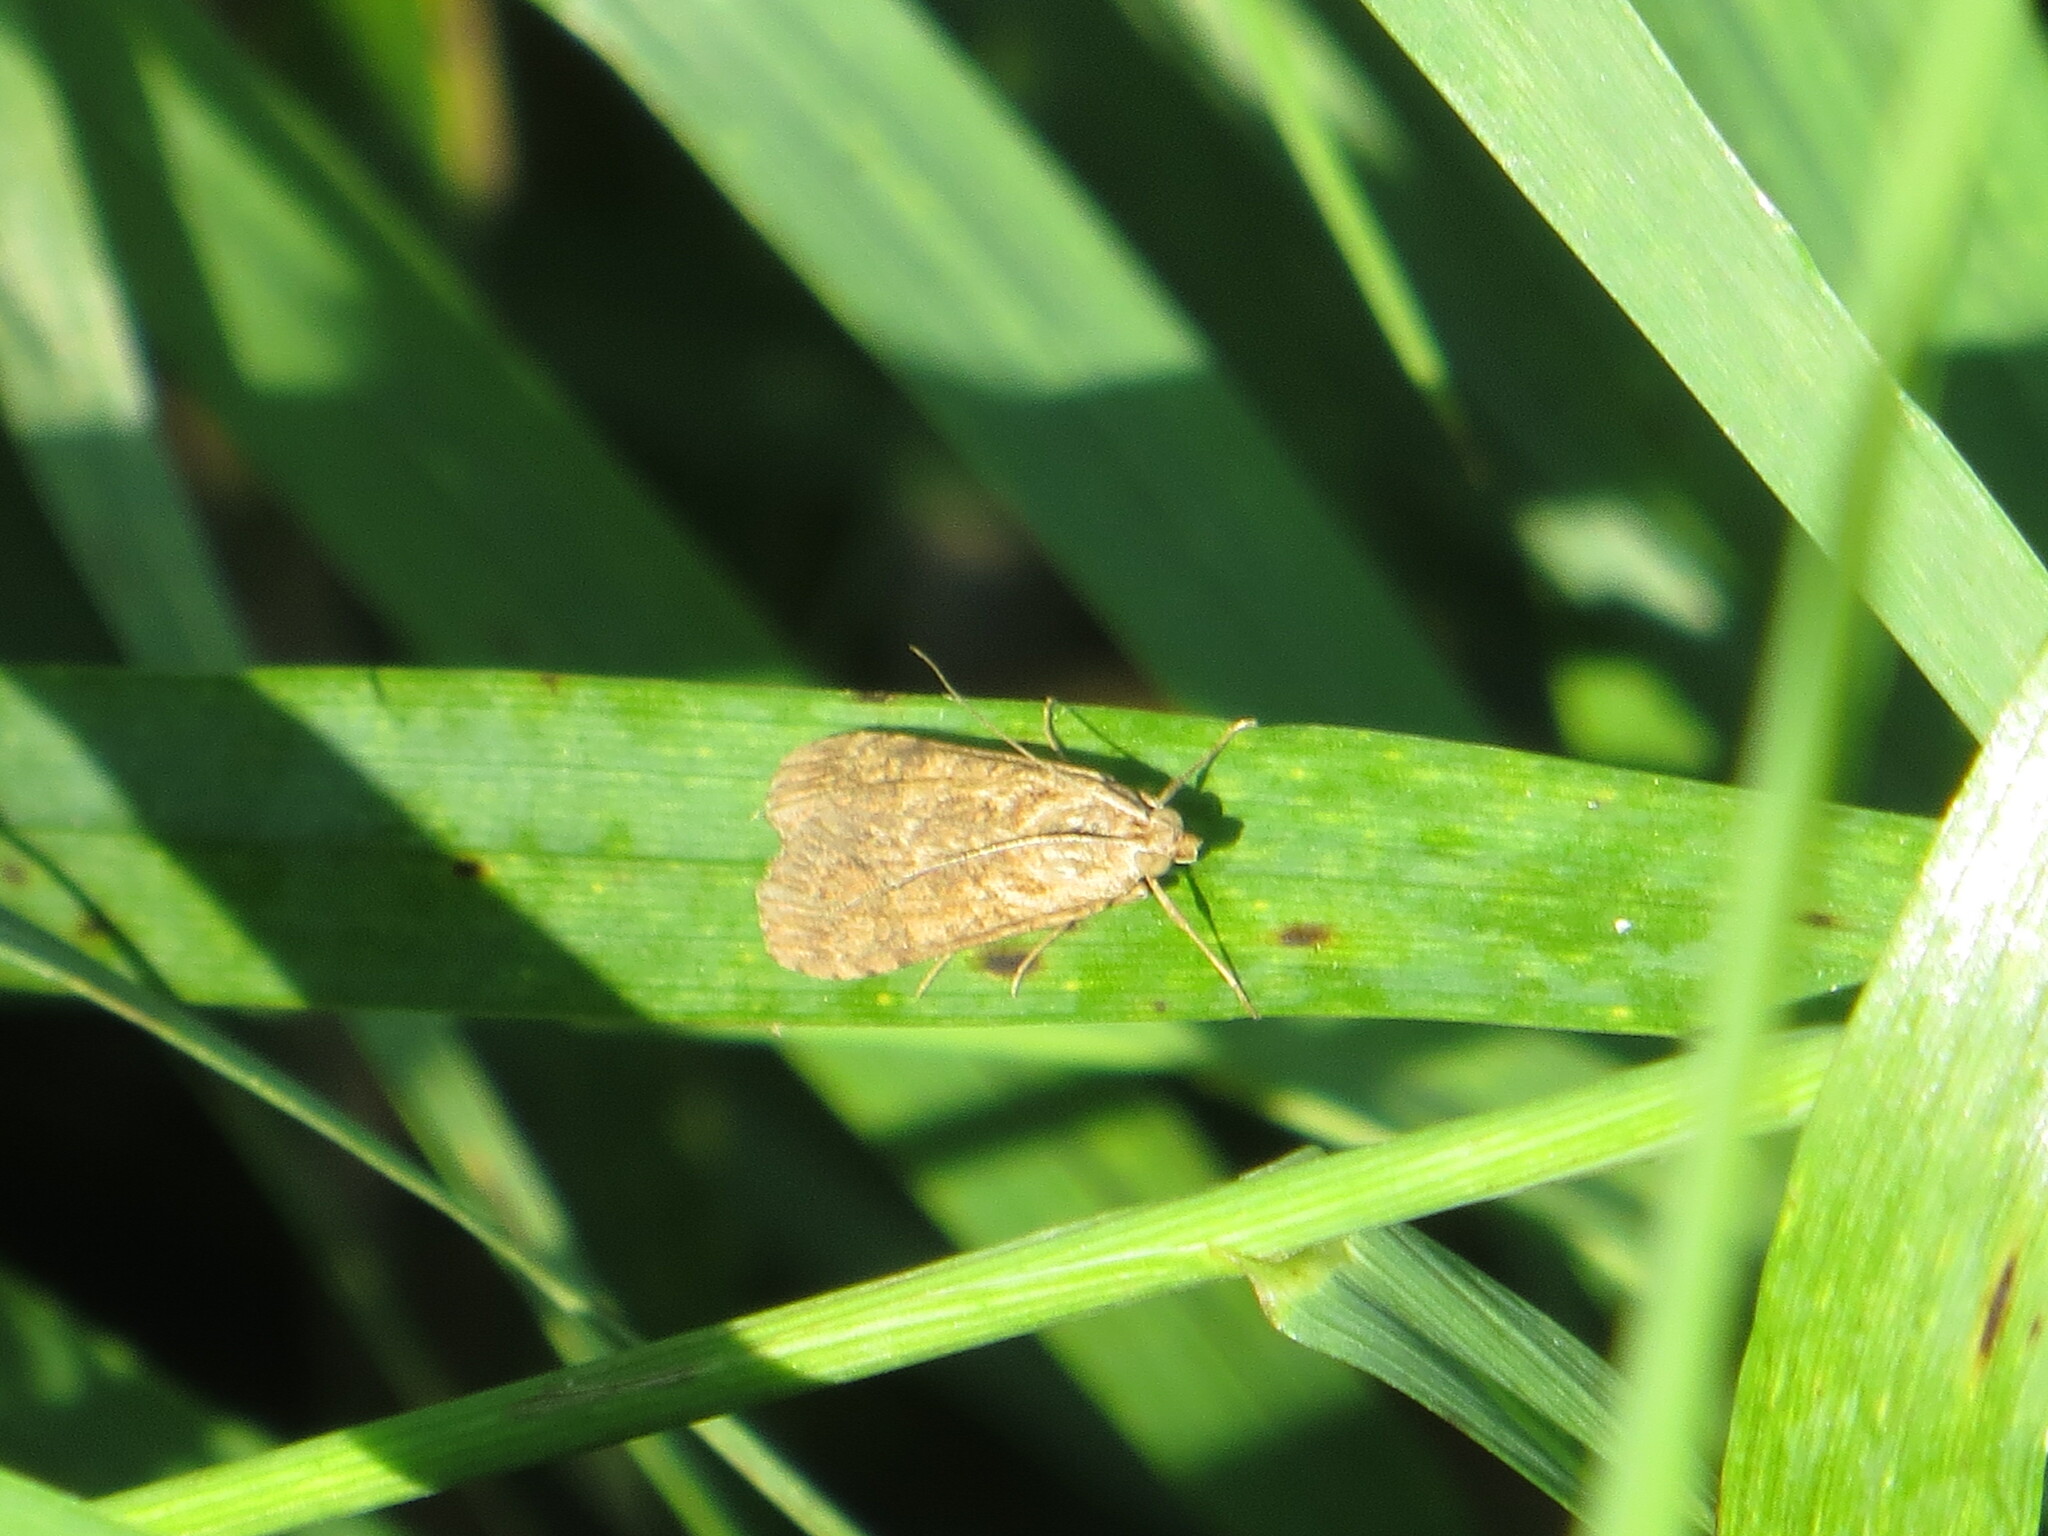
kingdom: Animalia
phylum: Arthropoda
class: Insecta
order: Lepidoptera
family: Crambidae
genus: Nomophila
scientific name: Nomophila noctuella
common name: Rush veneer
